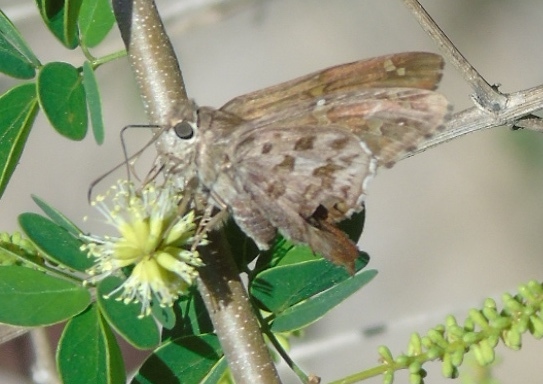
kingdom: Animalia
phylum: Arthropoda
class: Insecta
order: Lepidoptera
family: Hesperiidae
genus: Thorybes
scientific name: Thorybes
